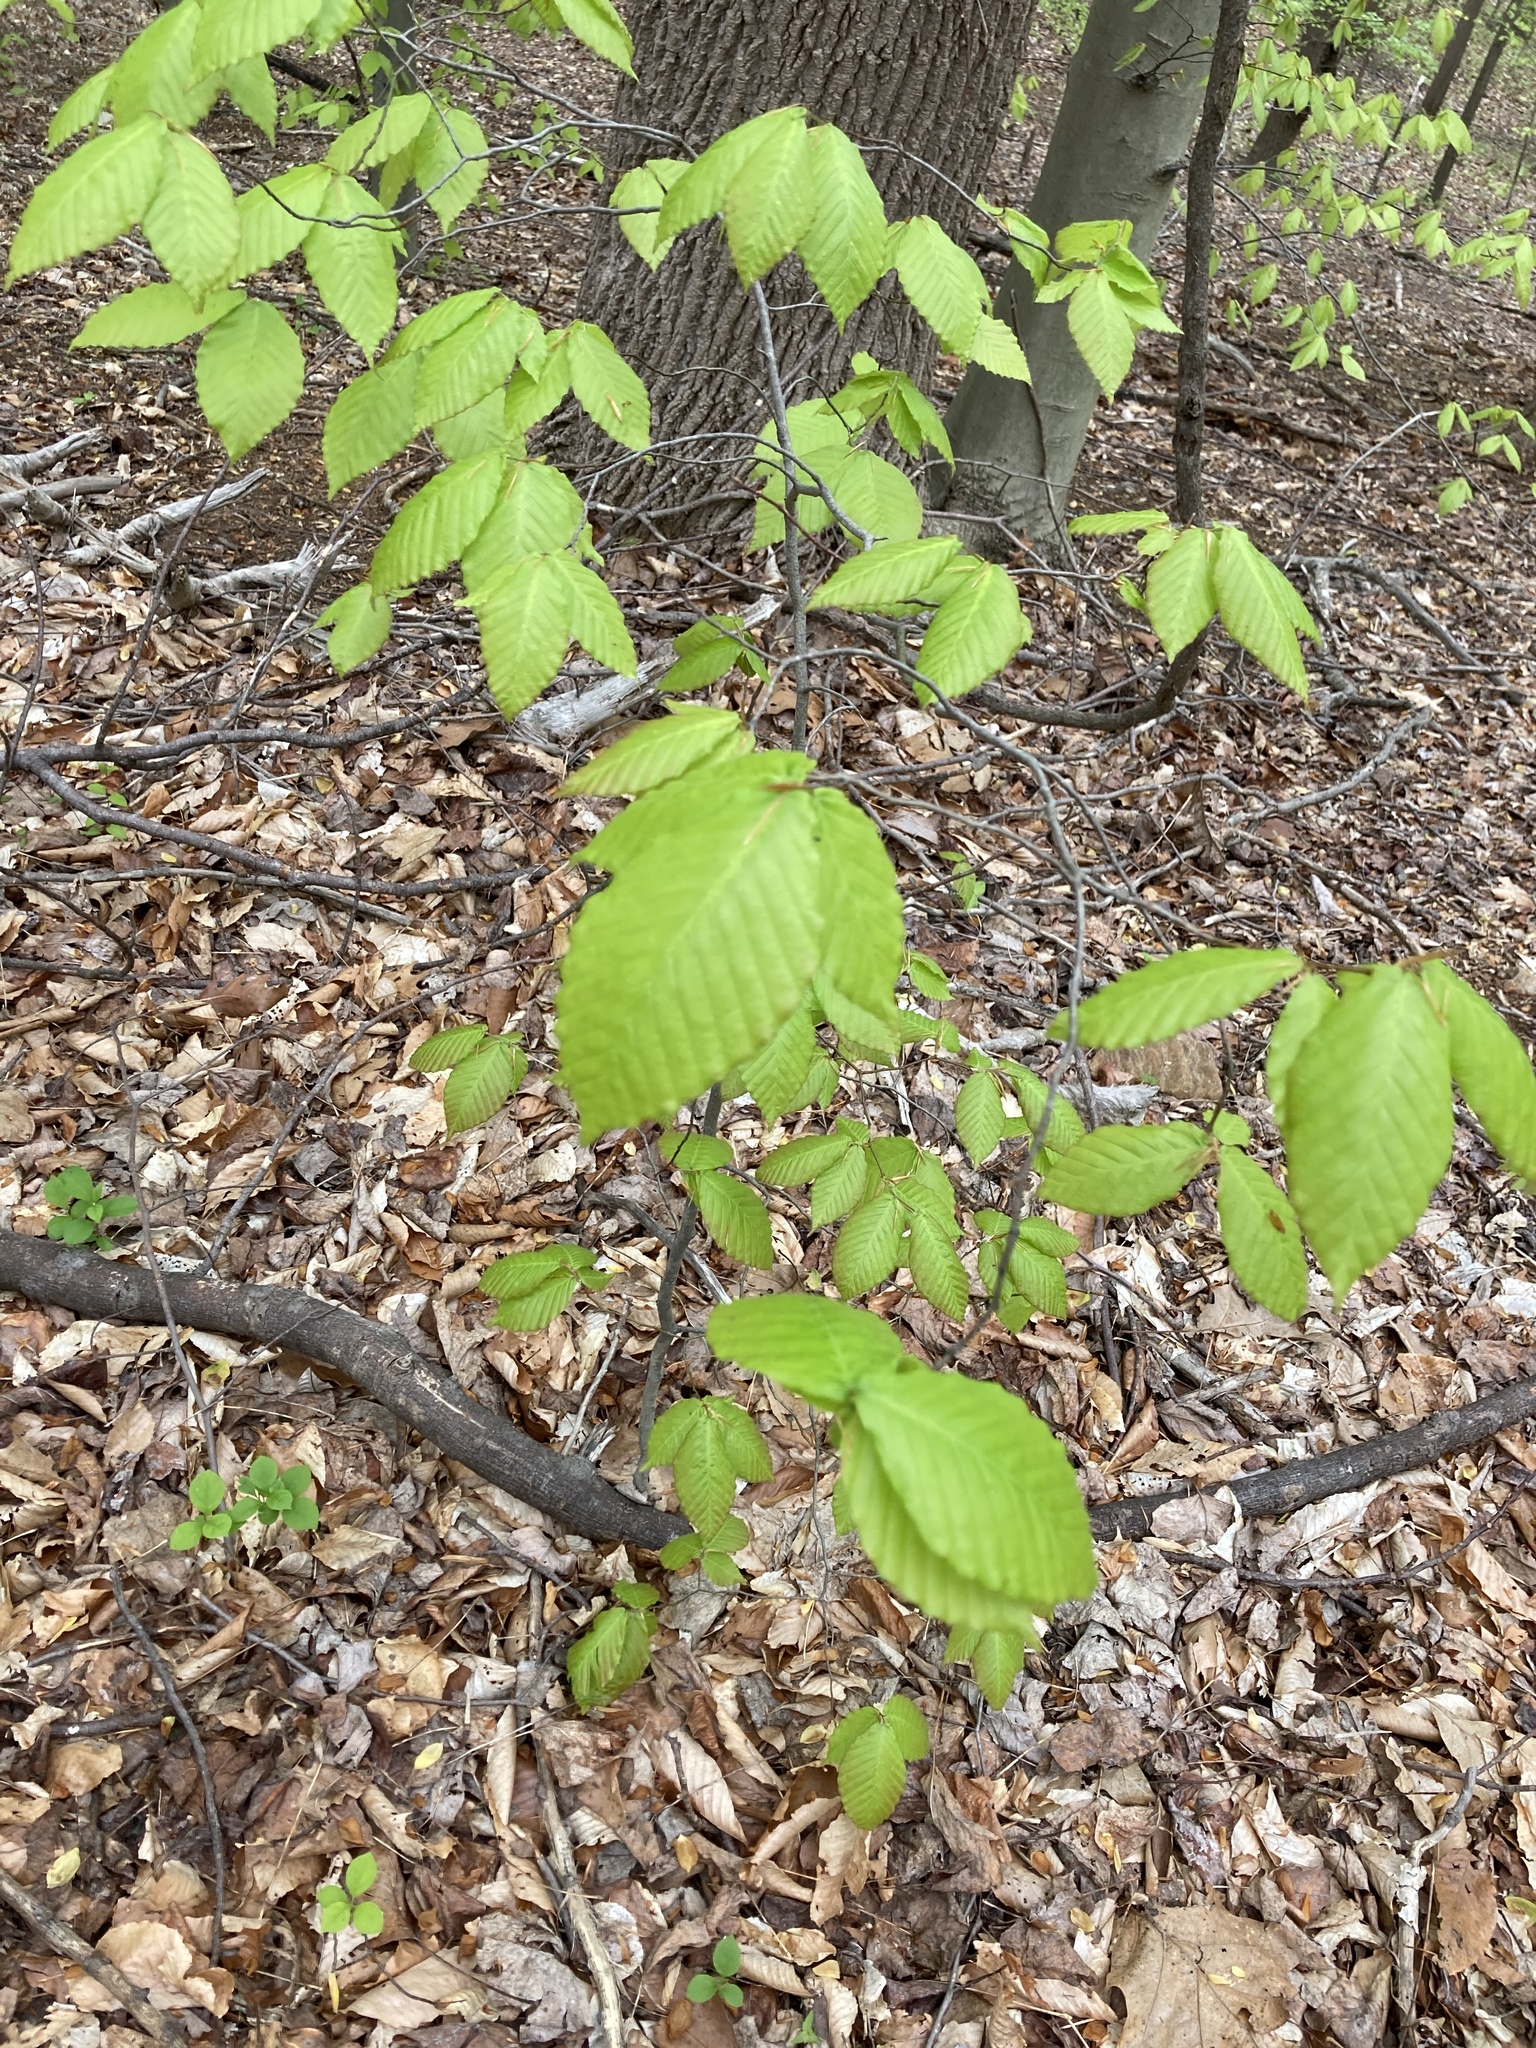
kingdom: Plantae
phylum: Tracheophyta
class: Magnoliopsida
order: Fagales
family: Fagaceae
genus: Fagus
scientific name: Fagus grandifolia
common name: American beech
